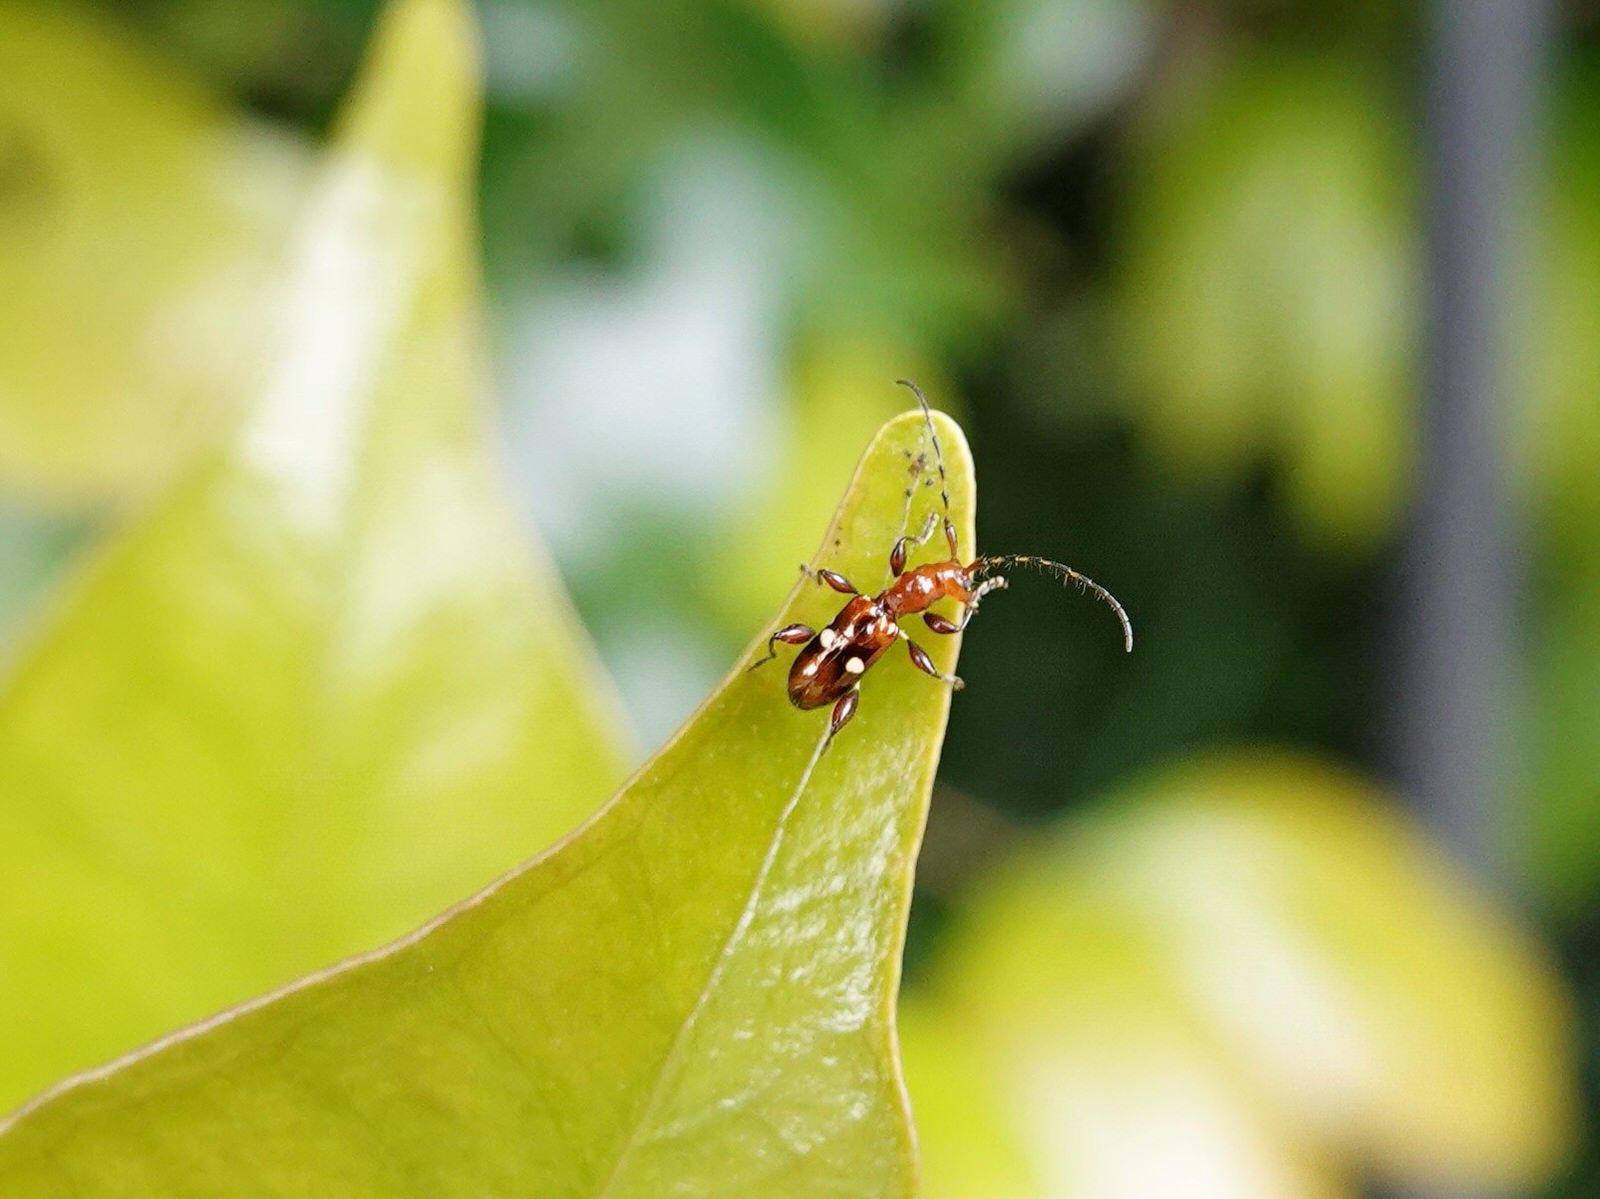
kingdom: Animalia
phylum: Arthropoda
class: Insecta
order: Coleoptera
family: Cerambycidae
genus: Zorion
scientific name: Zorion batesi
